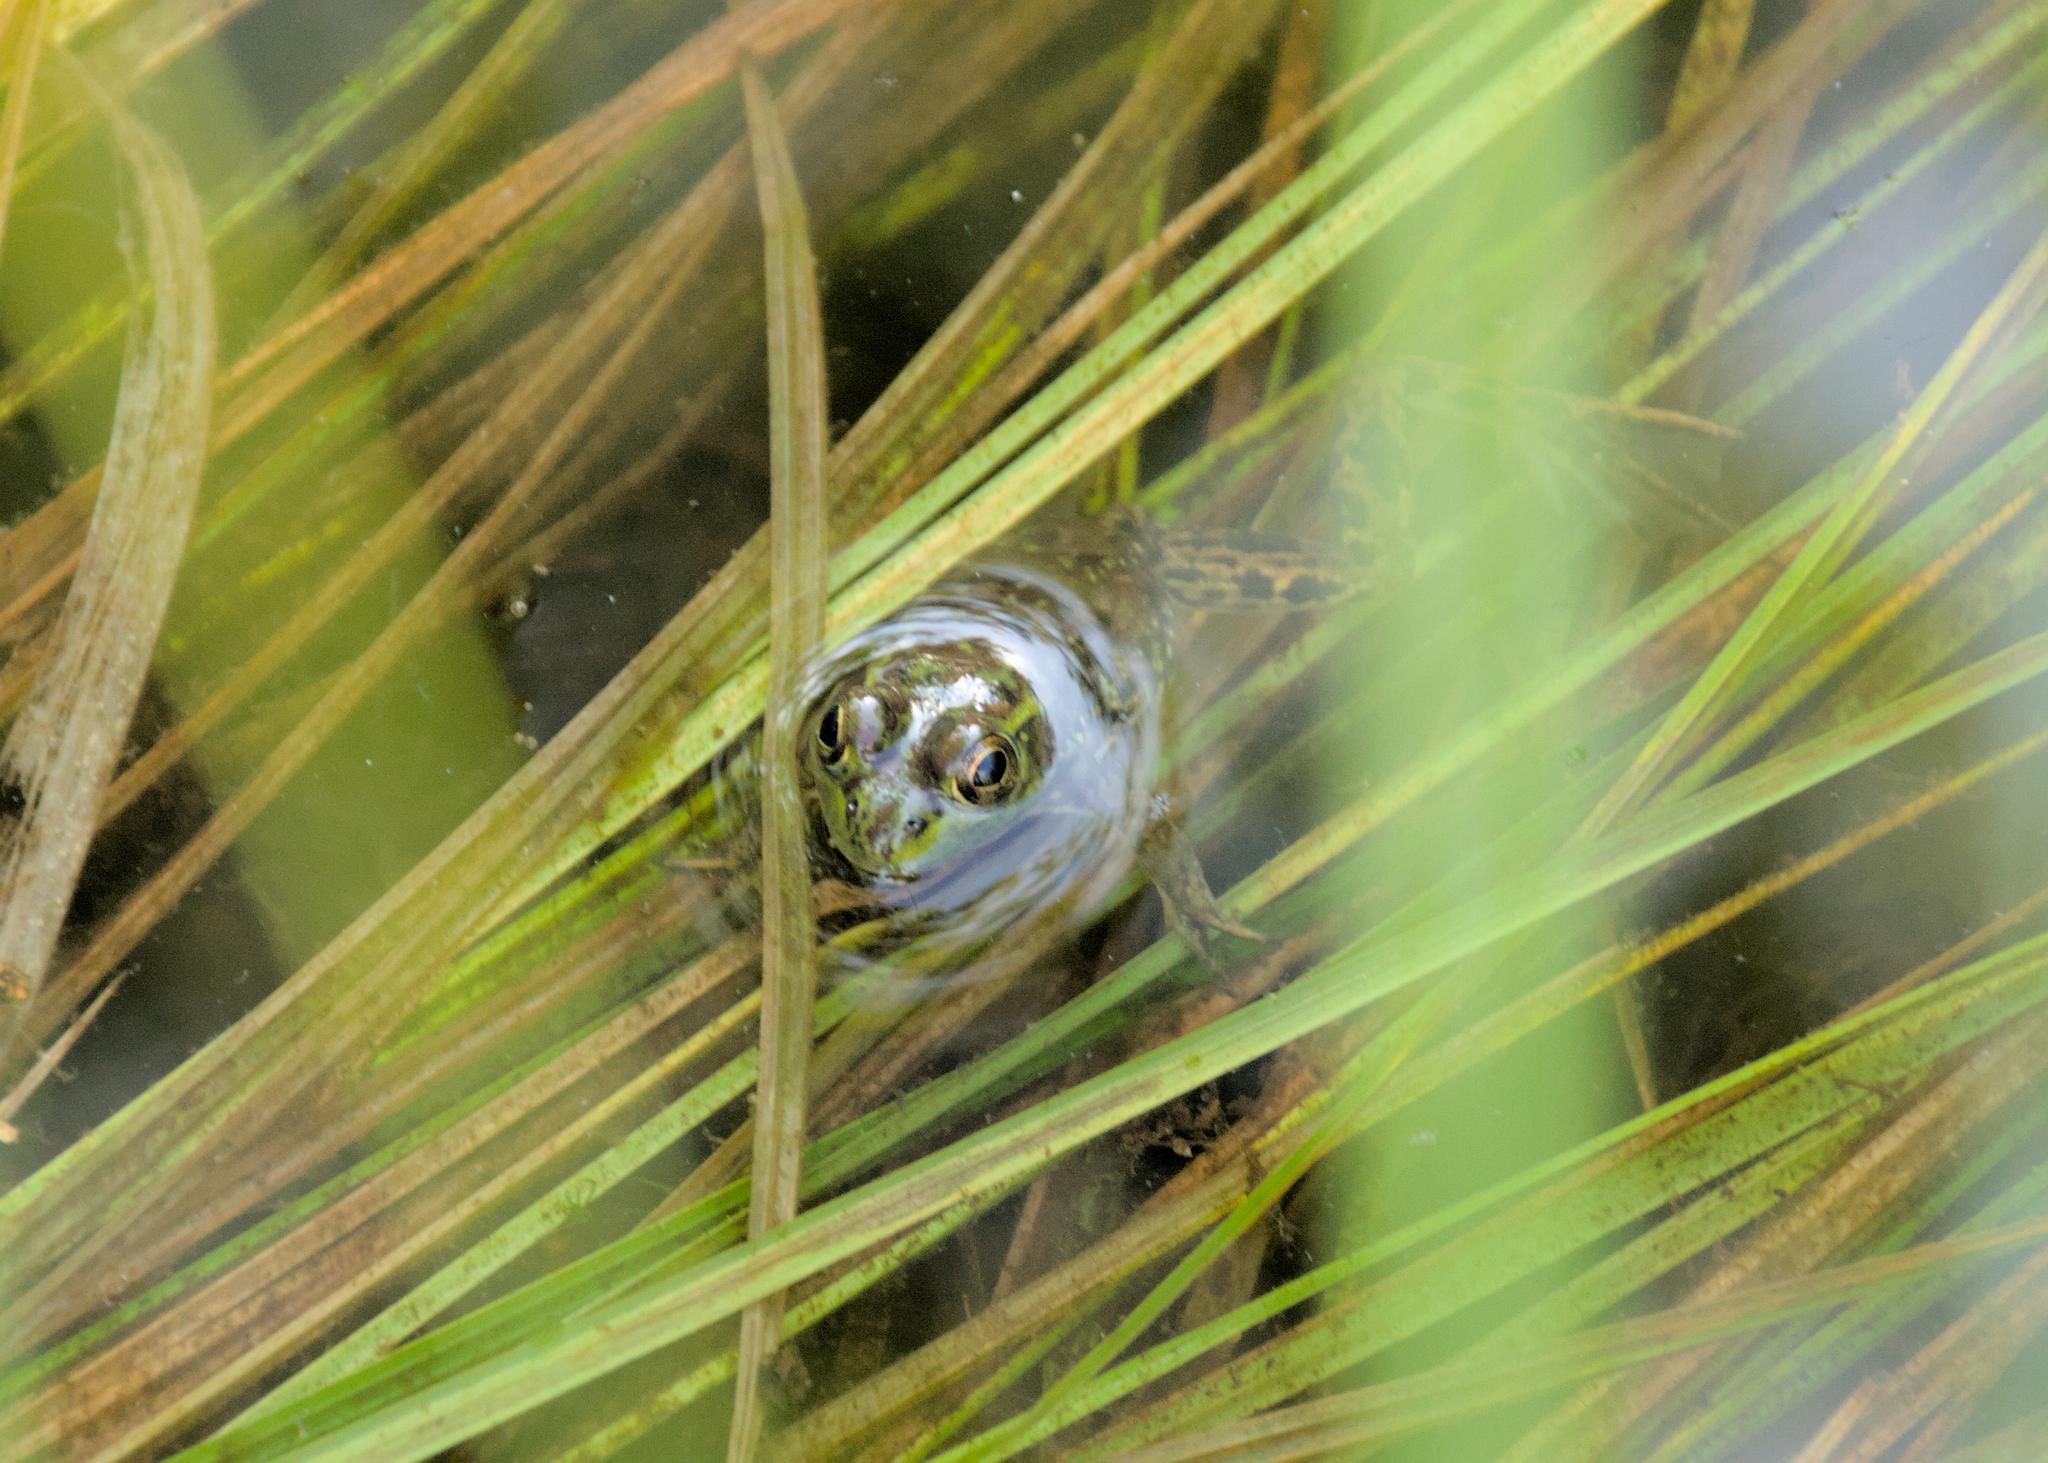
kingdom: Animalia
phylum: Chordata
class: Amphibia
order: Anura
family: Ranidae
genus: Lithobates
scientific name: Lithobates septentrionalis
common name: Mink frog
